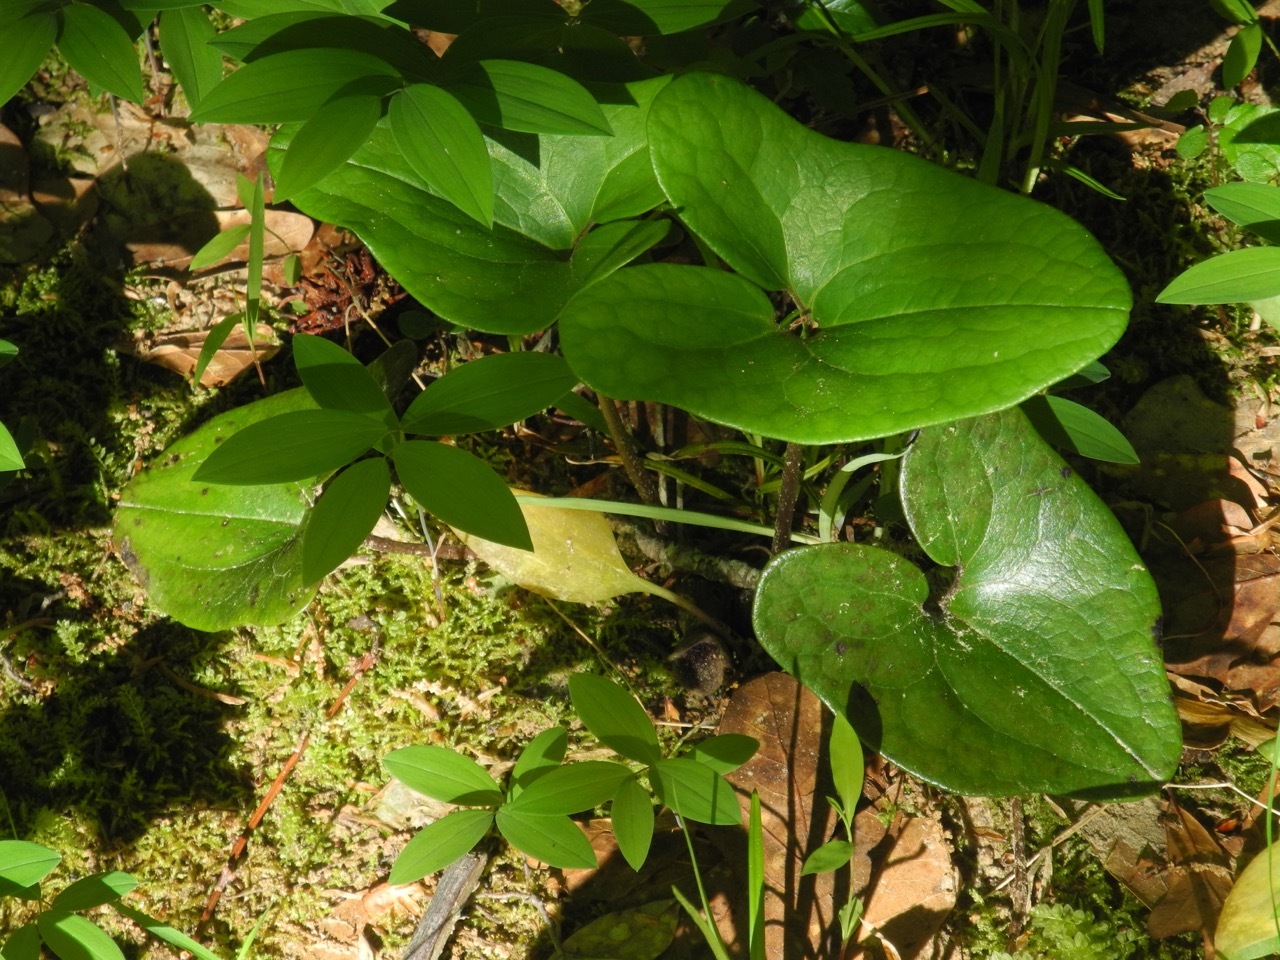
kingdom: Plantae
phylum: Tracheophyta
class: Magnoliopsida
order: Piperales
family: Aristolochiaceae
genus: Hexastylis
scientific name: Hexastylis arifolia
